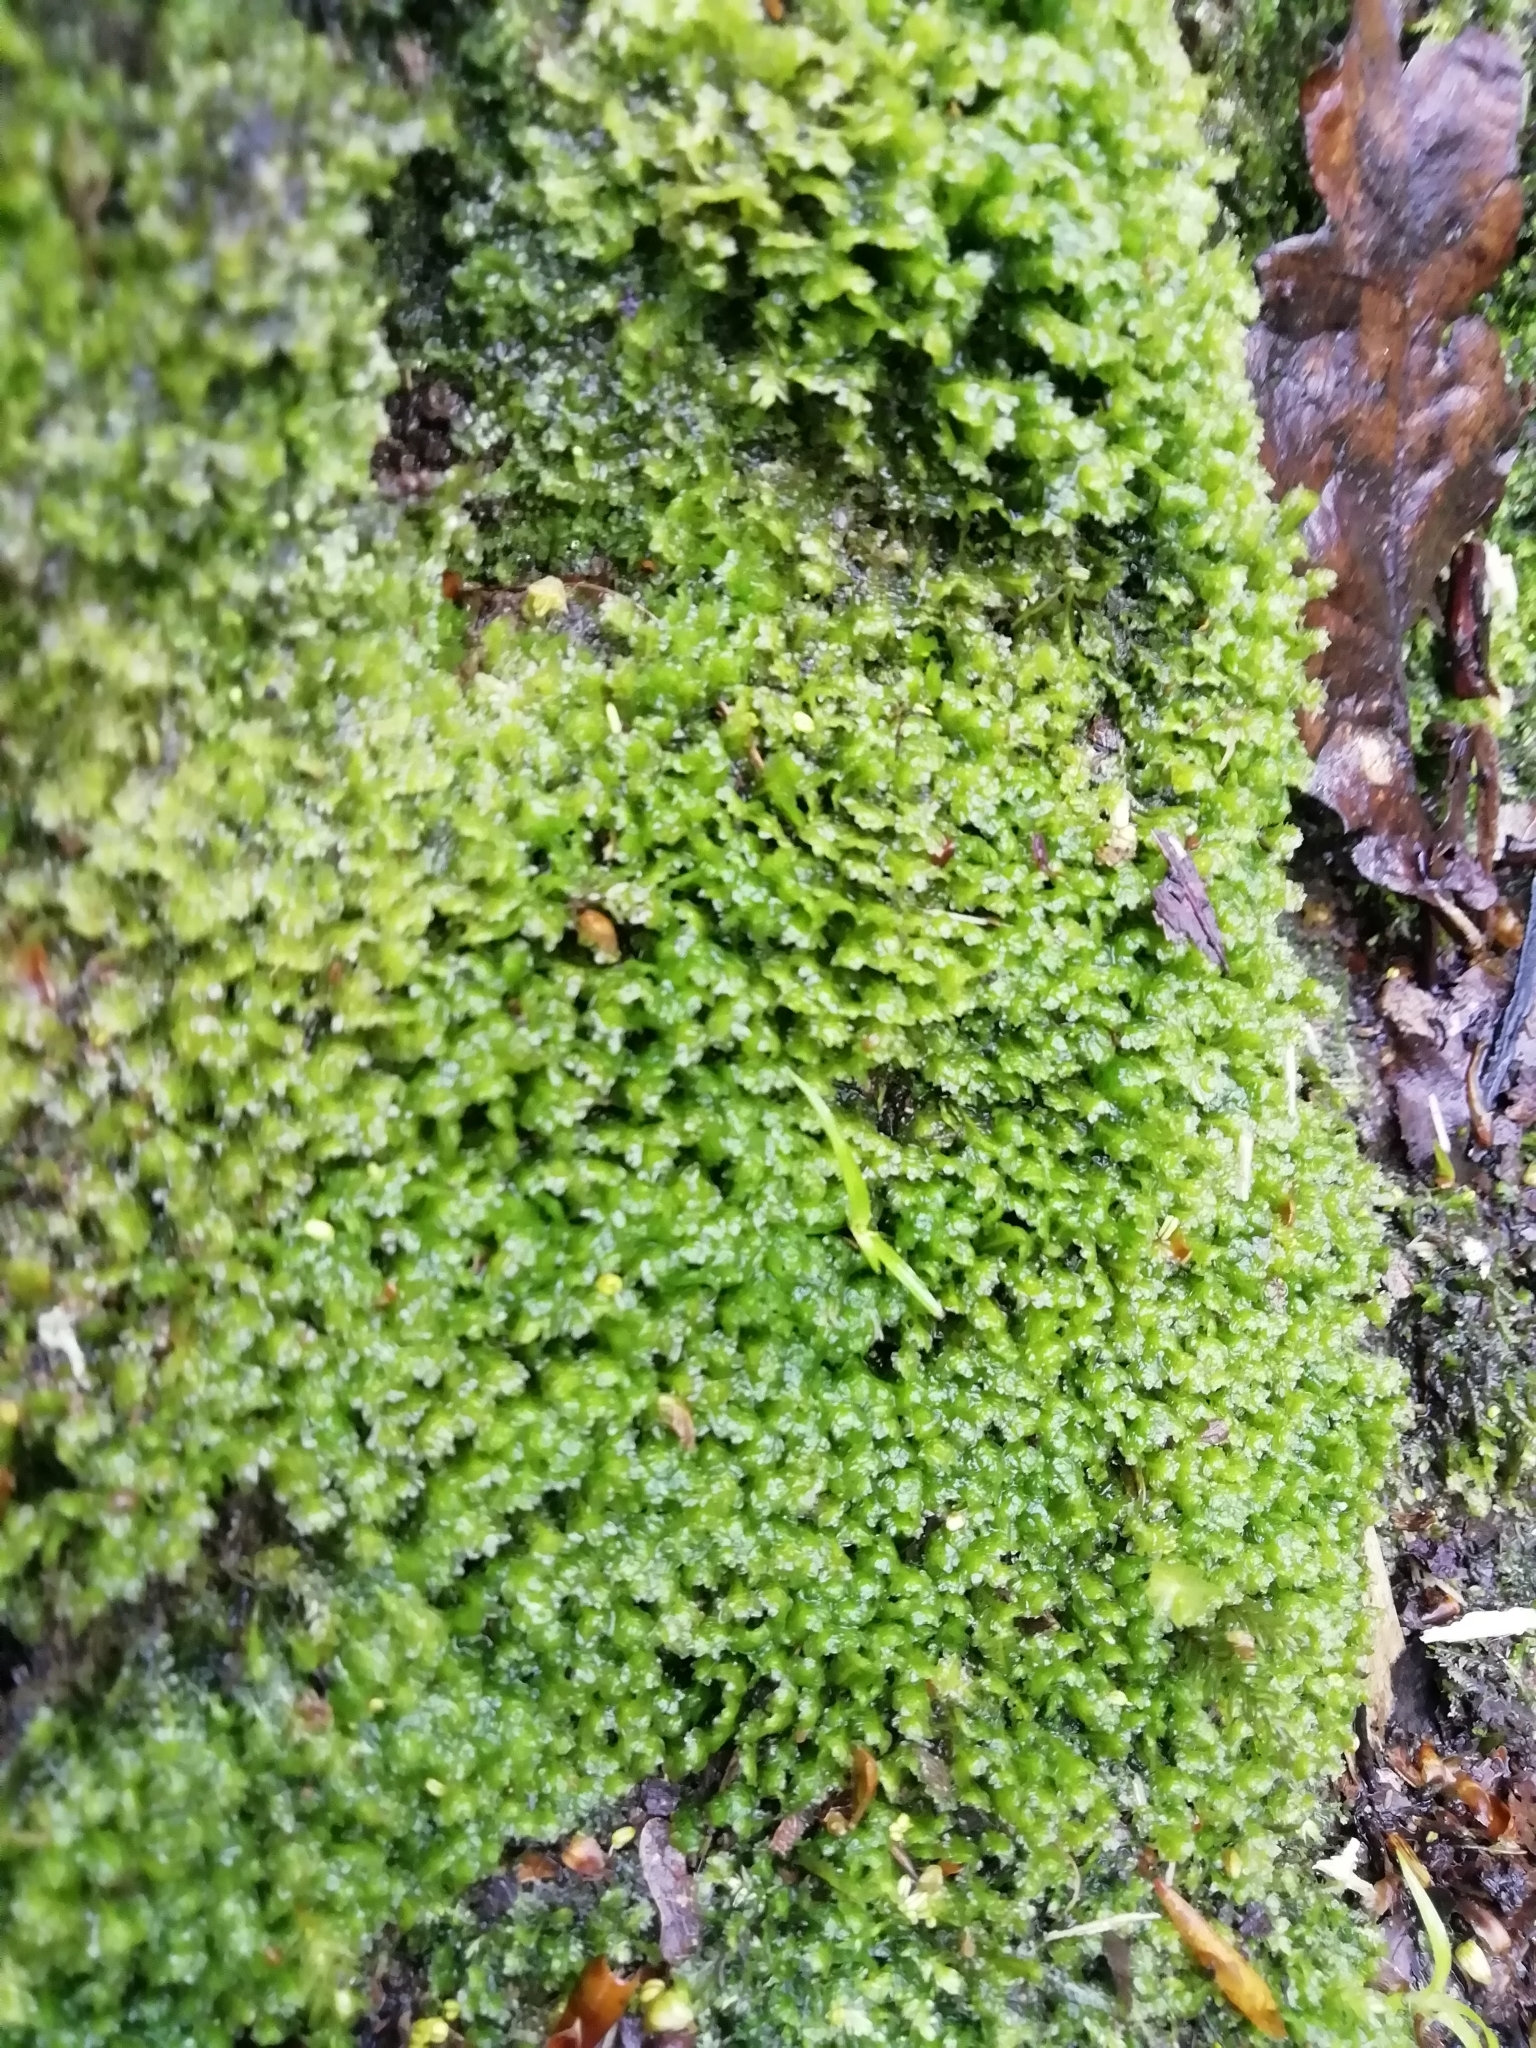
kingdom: Plantae
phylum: Marchantiophyta
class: Jungermanniopsida
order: Jungermanniales
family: Scapaniaceae
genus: Scapania
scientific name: Scapania undulata
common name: Water earwort
